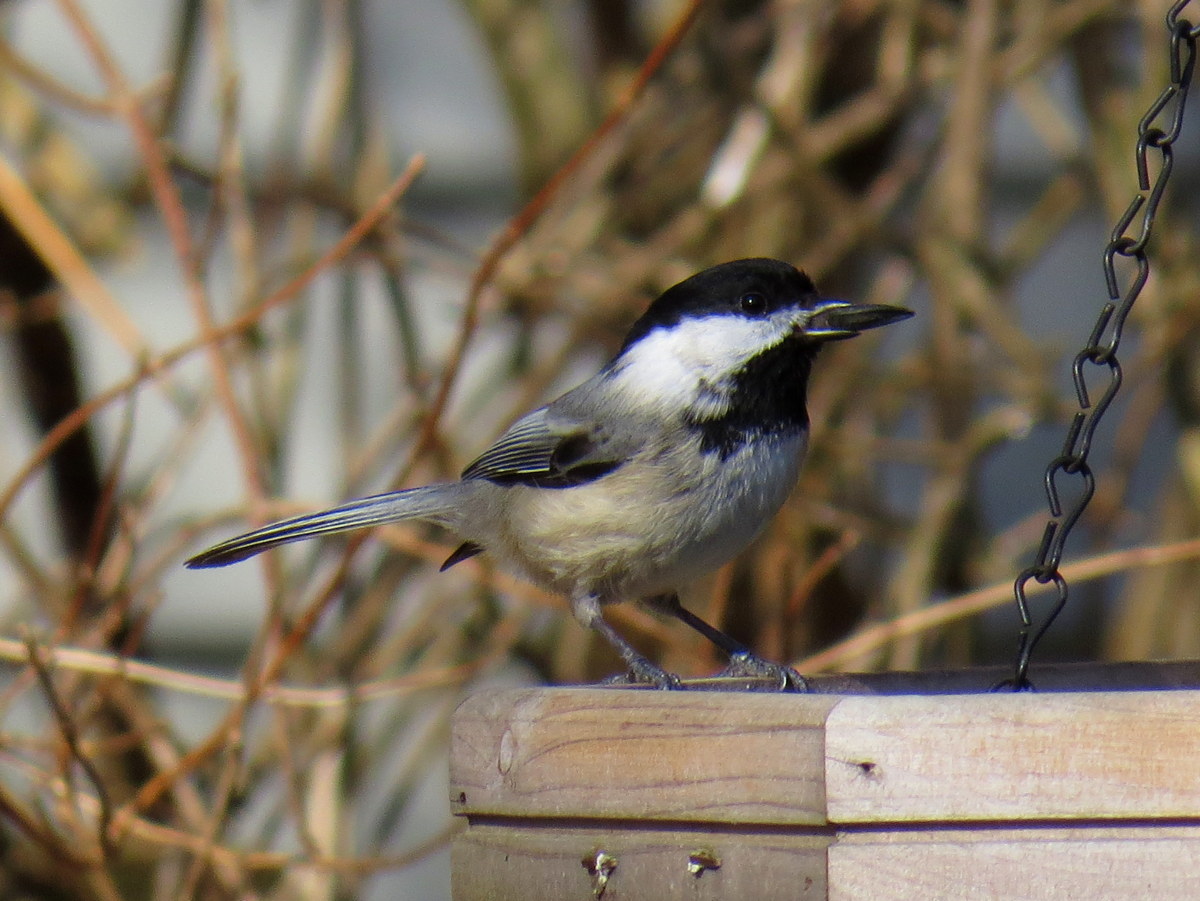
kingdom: Animalia
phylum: Chordata
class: Aves
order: Passeriformes
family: Paridae
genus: Poecile
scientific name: Poecile atricapillus
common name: Black-capped chickadee
